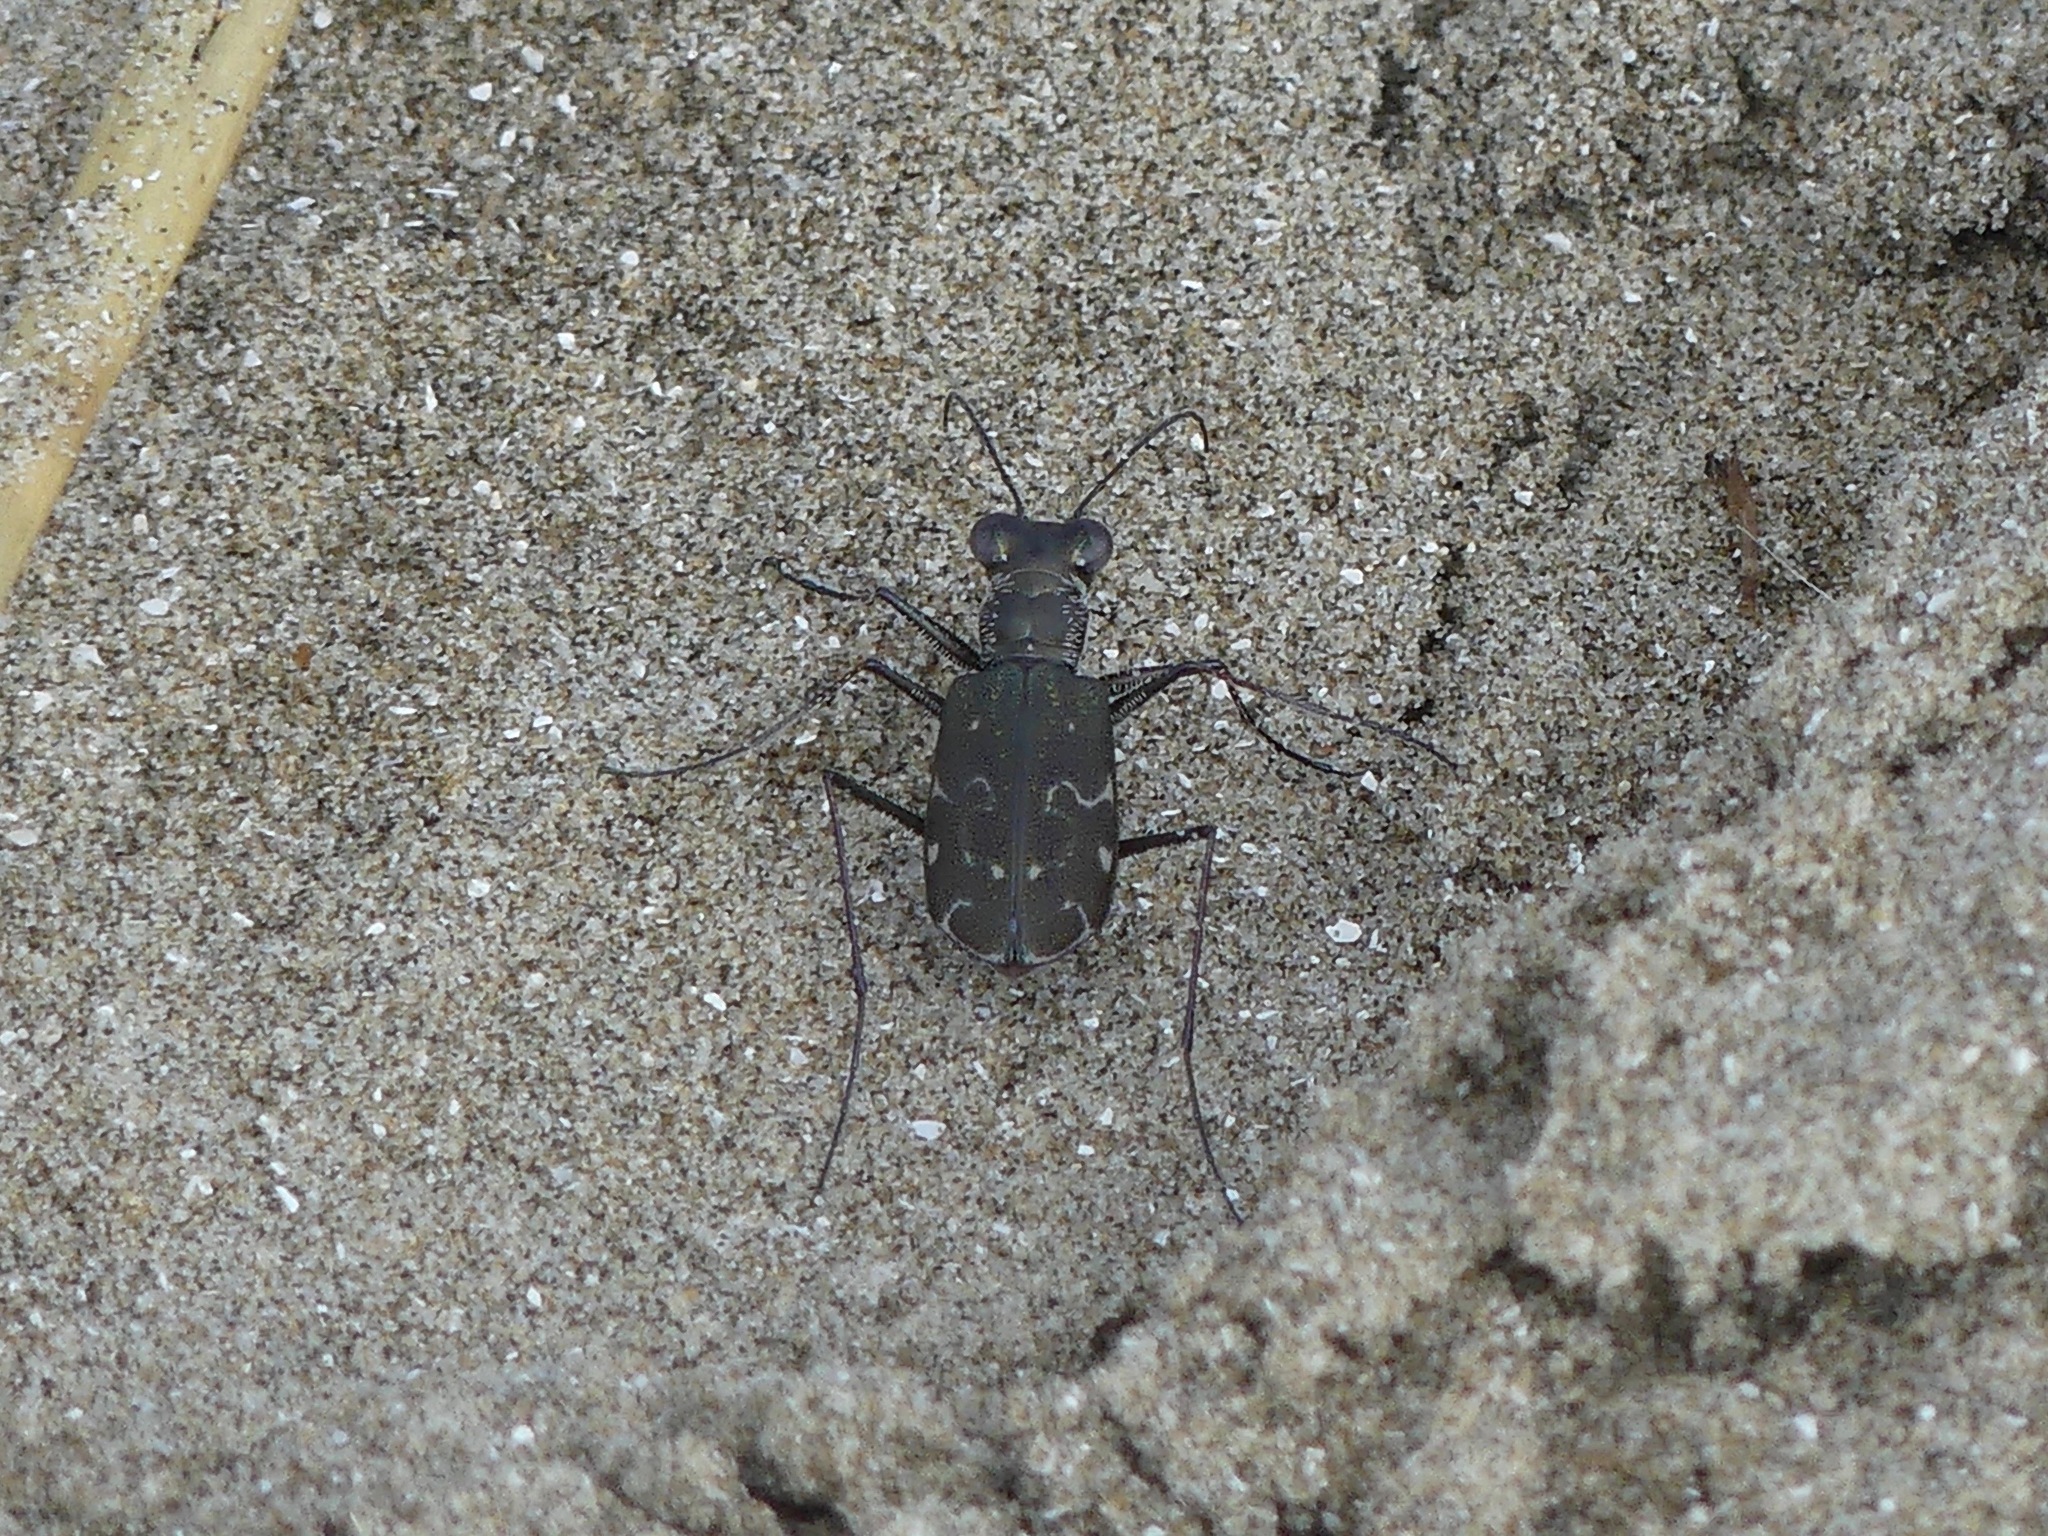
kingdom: Animalia
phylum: Arthropoda
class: Insecta
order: Coleoptera
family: Carabidae
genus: Cicindela
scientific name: Cicindela trifasciata
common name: Mudflat tiger beetle
